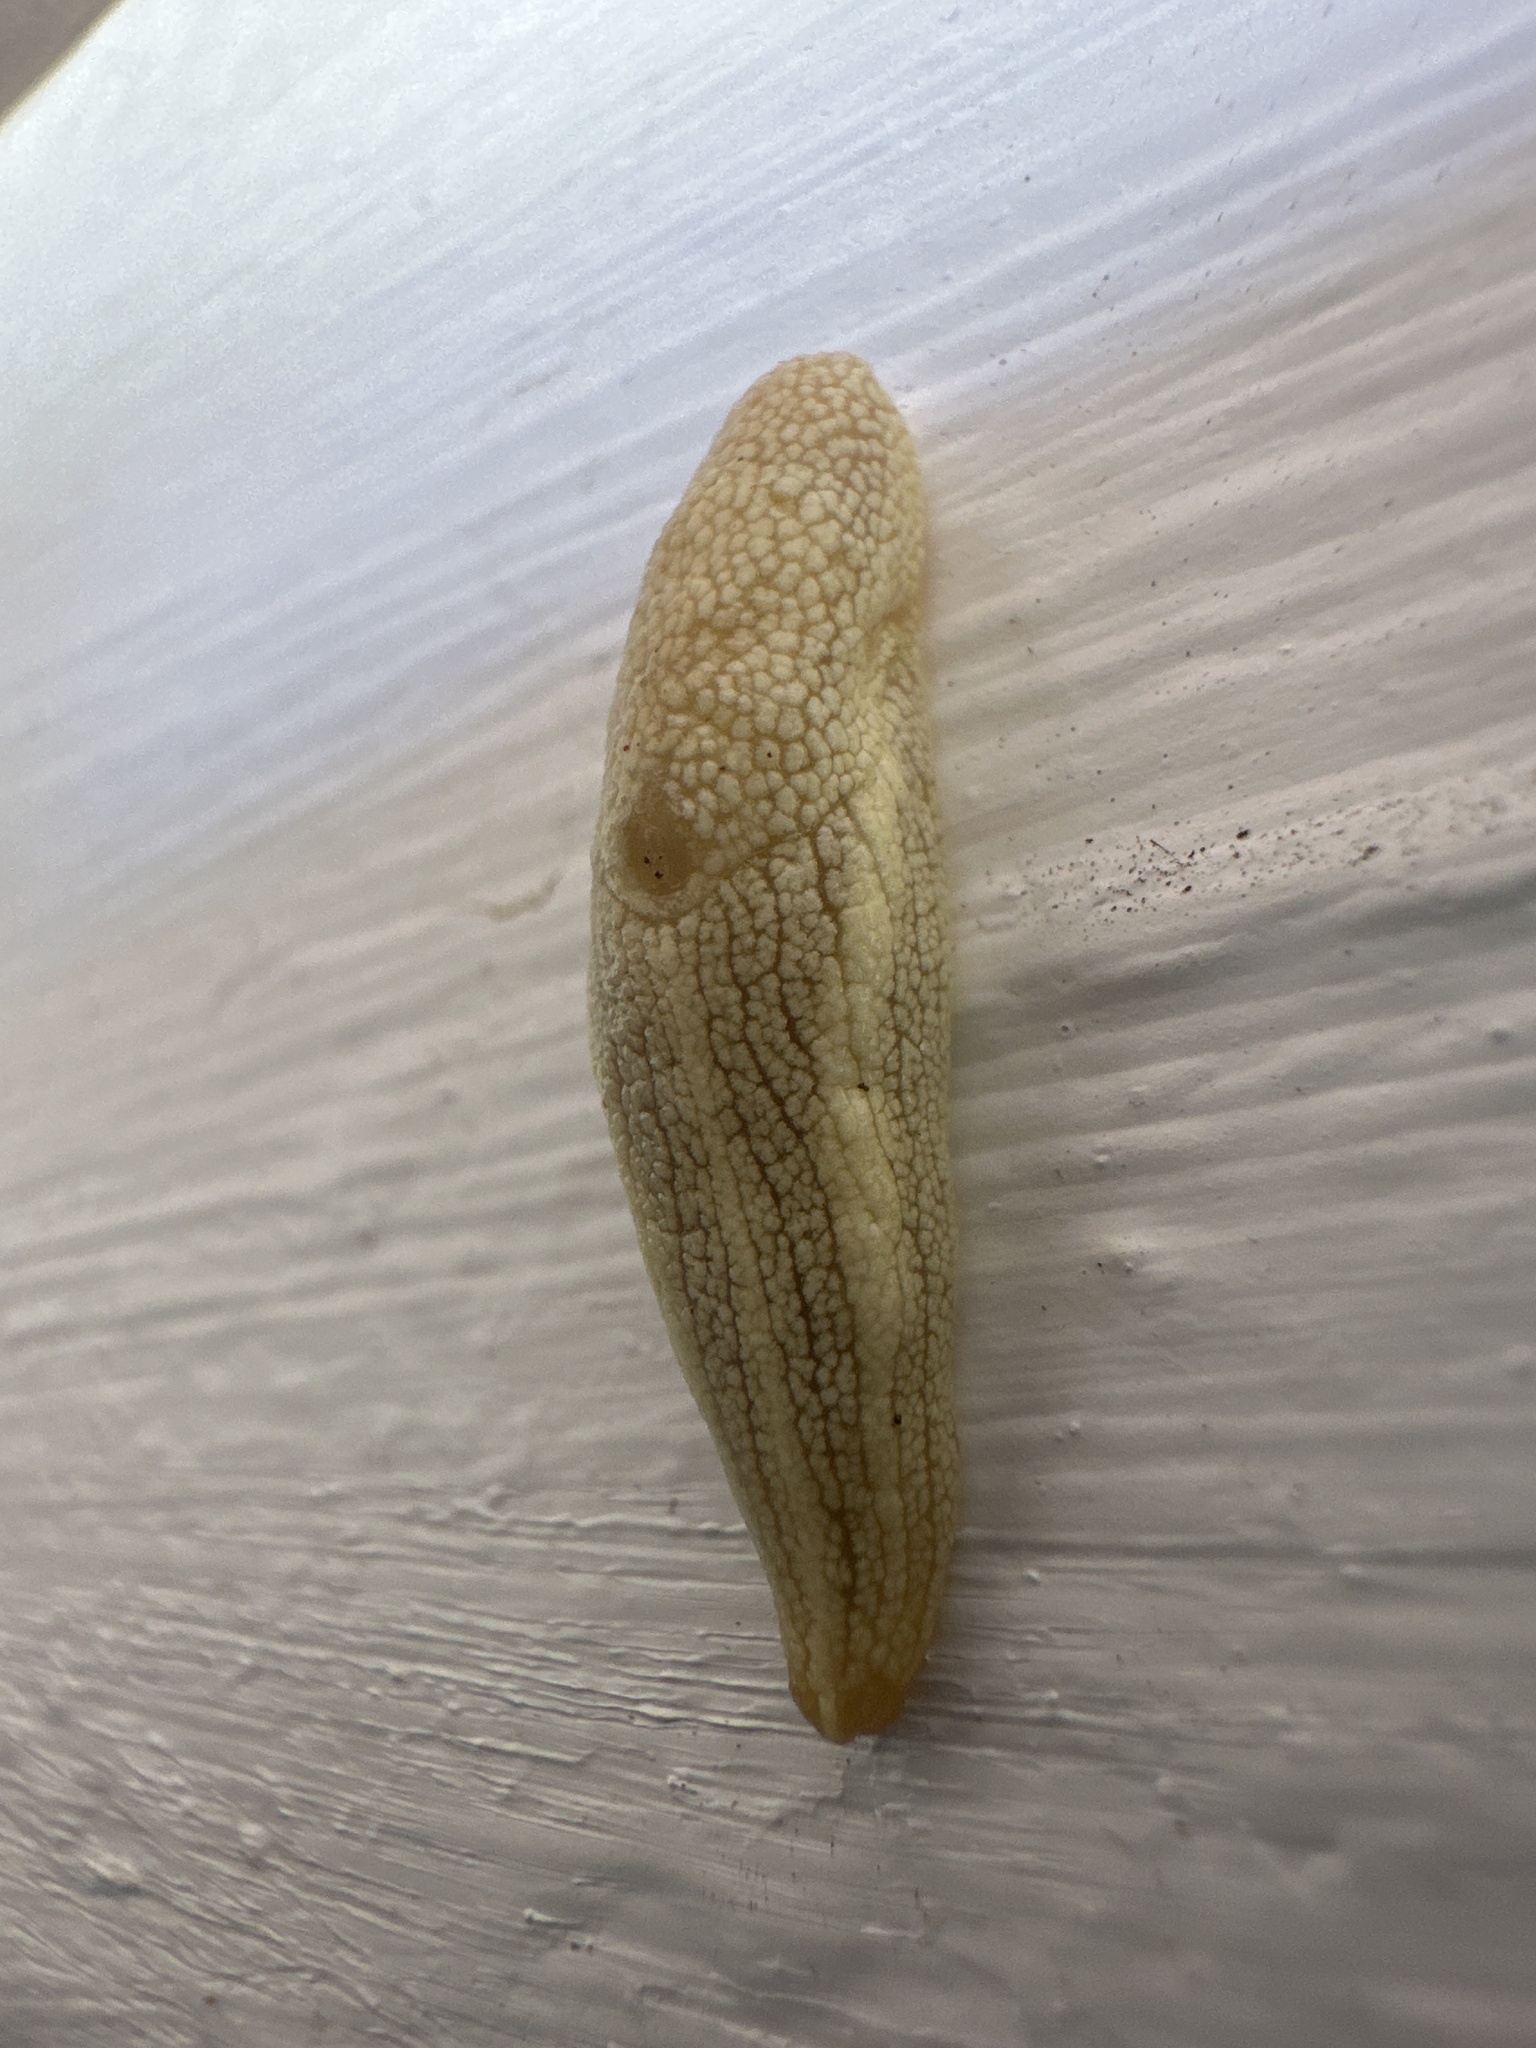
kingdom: Animalia
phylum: Mollusca
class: Gastropoda
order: Stylommatophora
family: Urocyclidae
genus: Elisolimax
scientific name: Elisolimax flavescens
